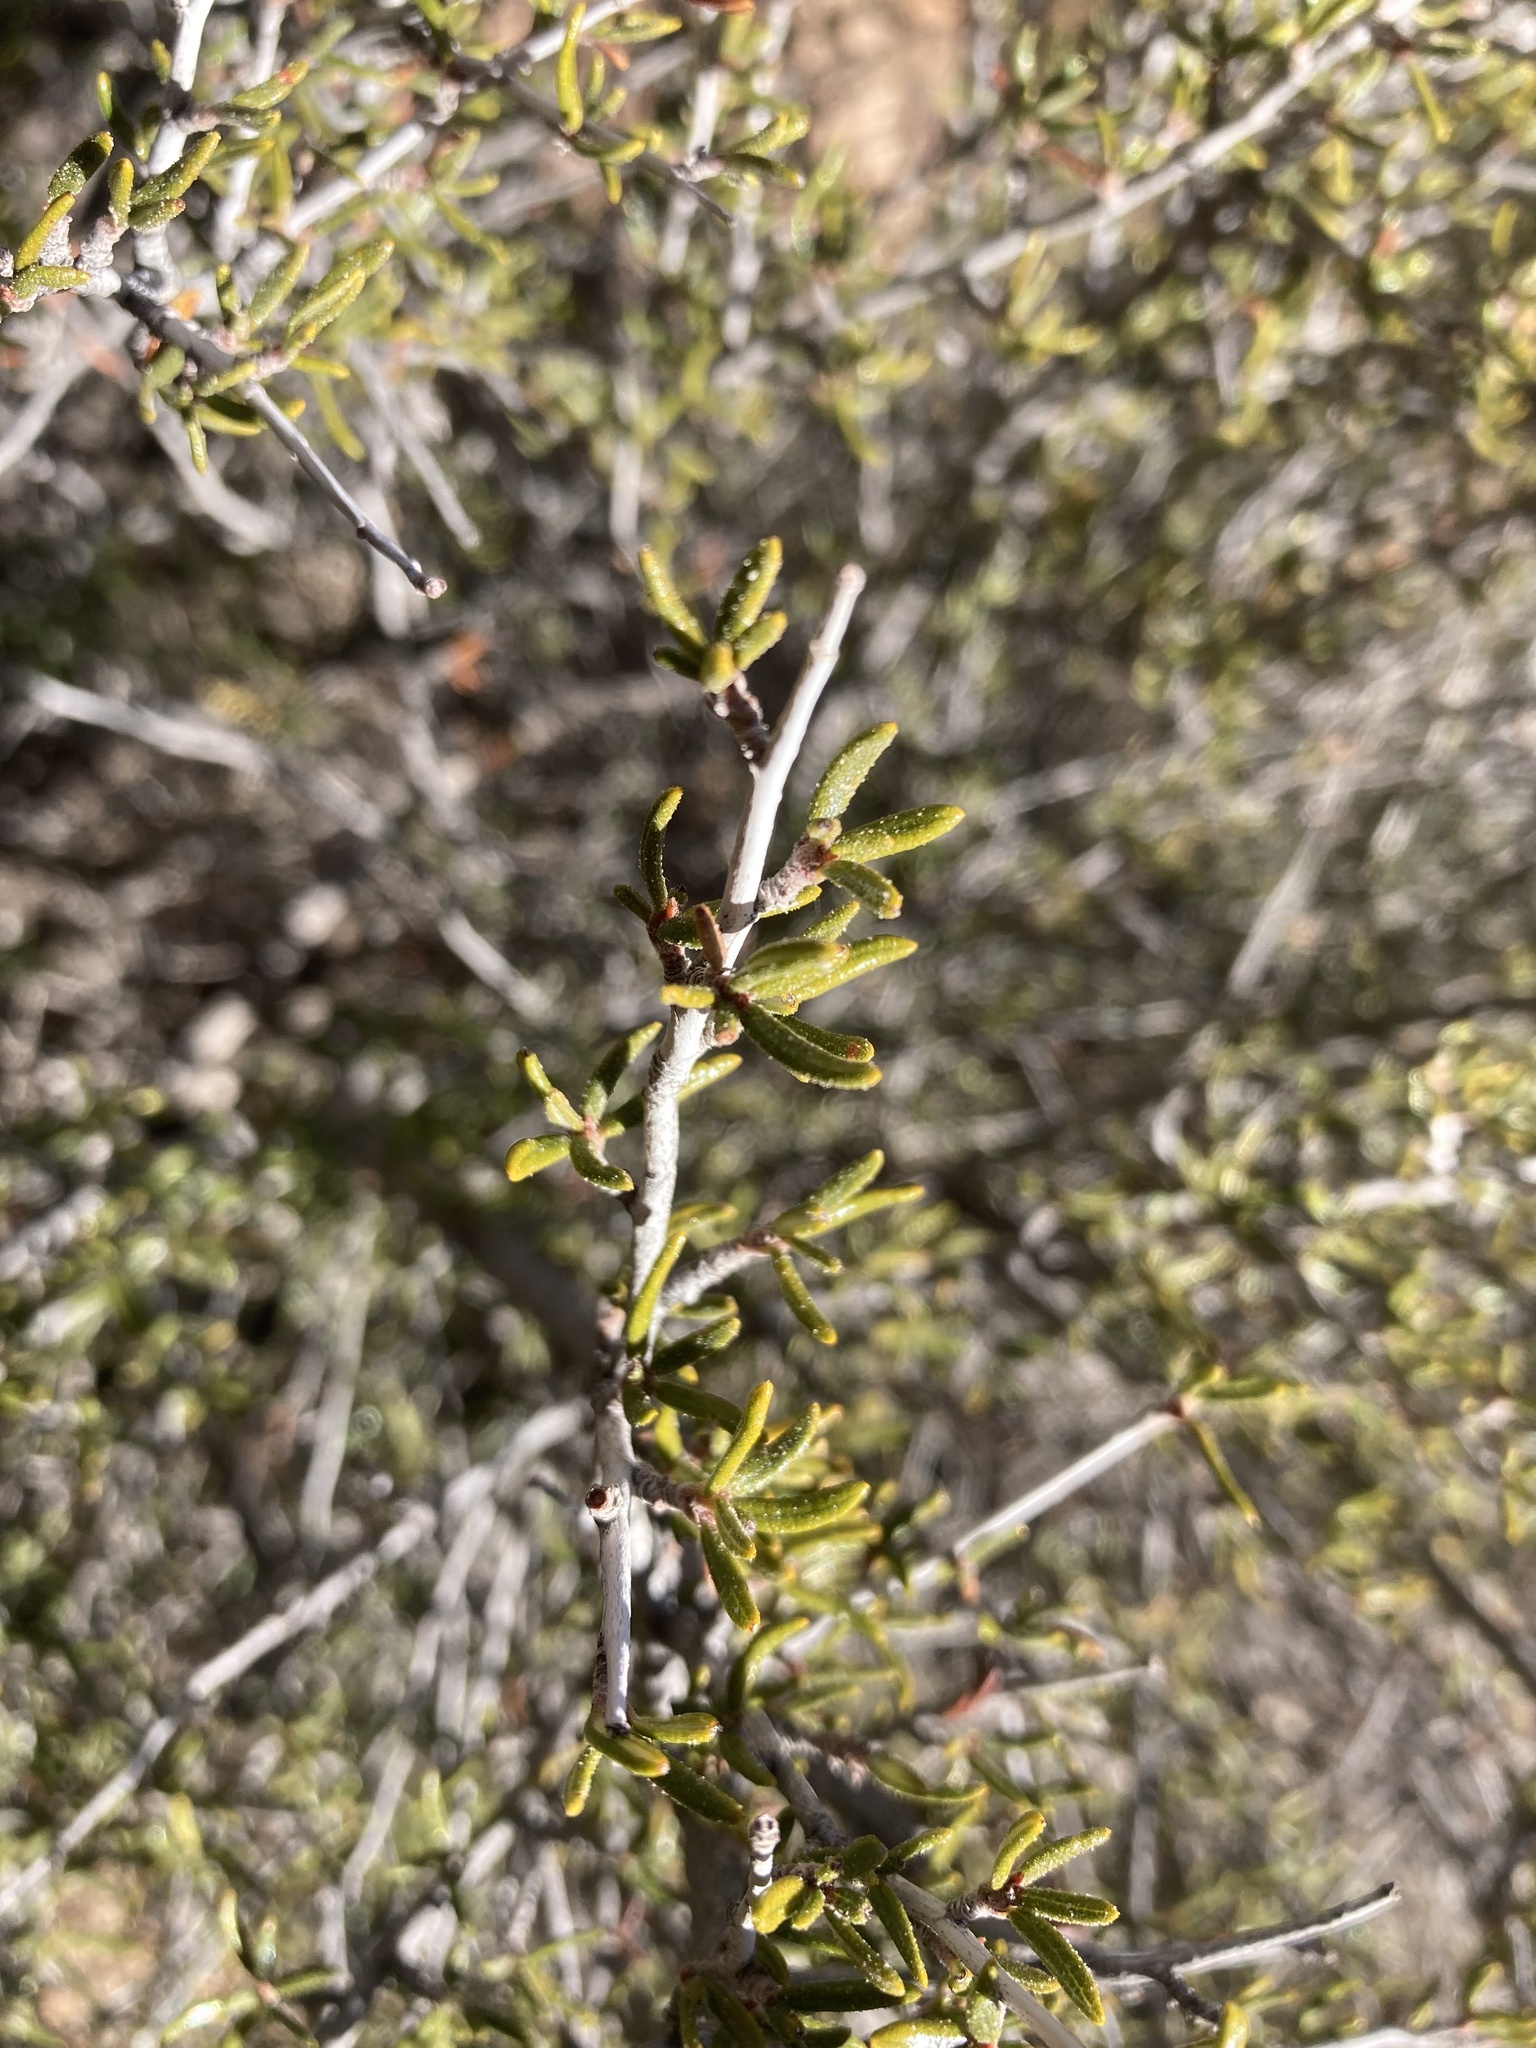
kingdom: Plantae
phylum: Tracheophyta
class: Magnoliopsida
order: Rosales
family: Rosaceae
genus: Cercocarpus
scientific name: Cercocarpus intricatus
